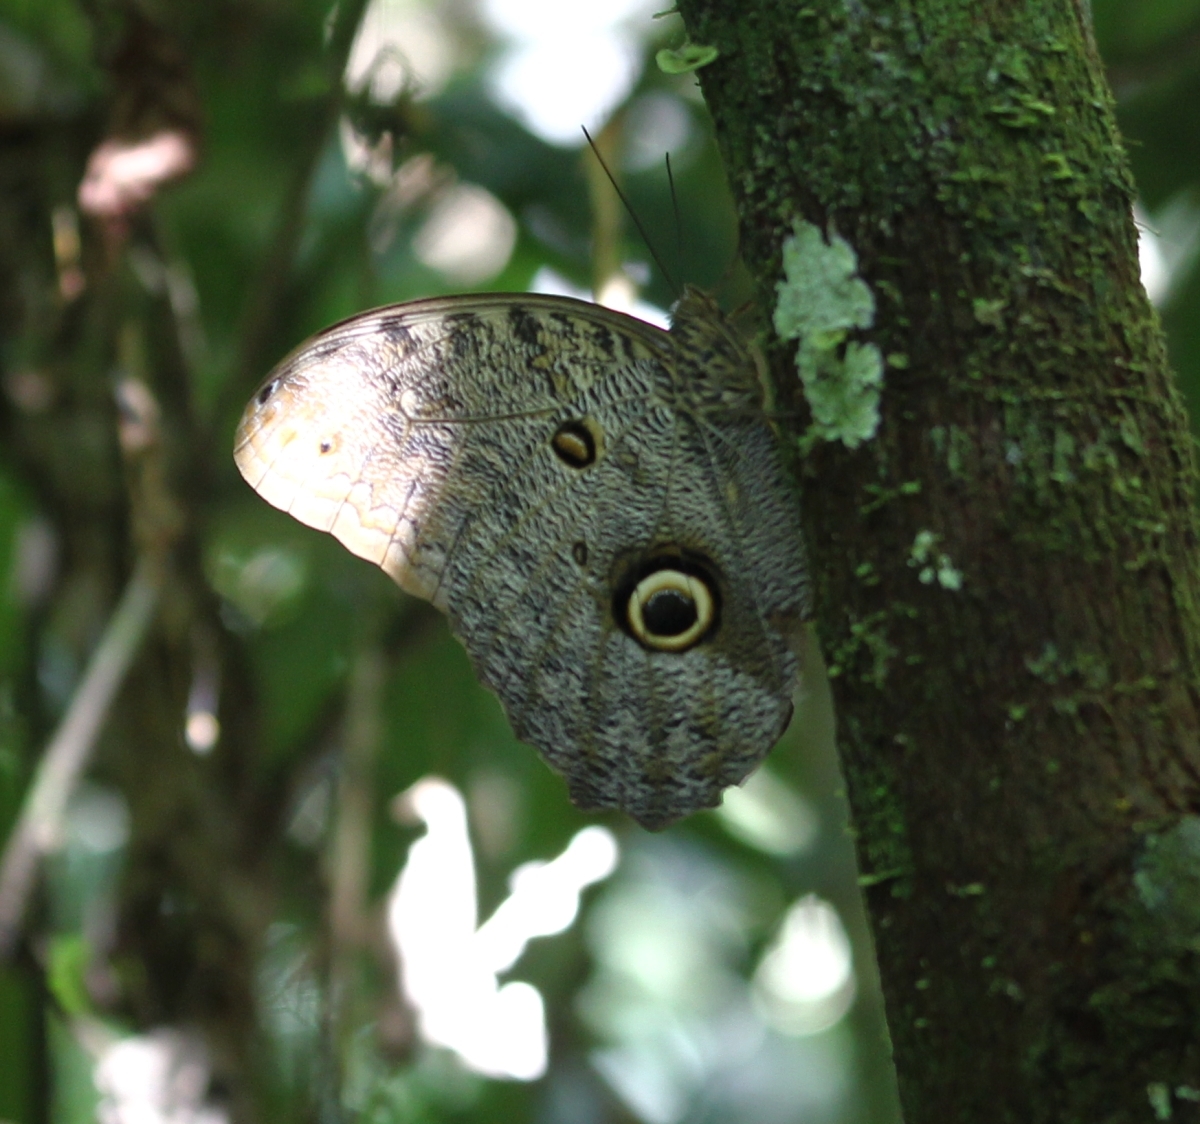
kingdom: Animalia
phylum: Arthropoda
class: Insecta
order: Lepidoptera
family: Nymphalidae
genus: Caligo
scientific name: Caligo eurilochus
